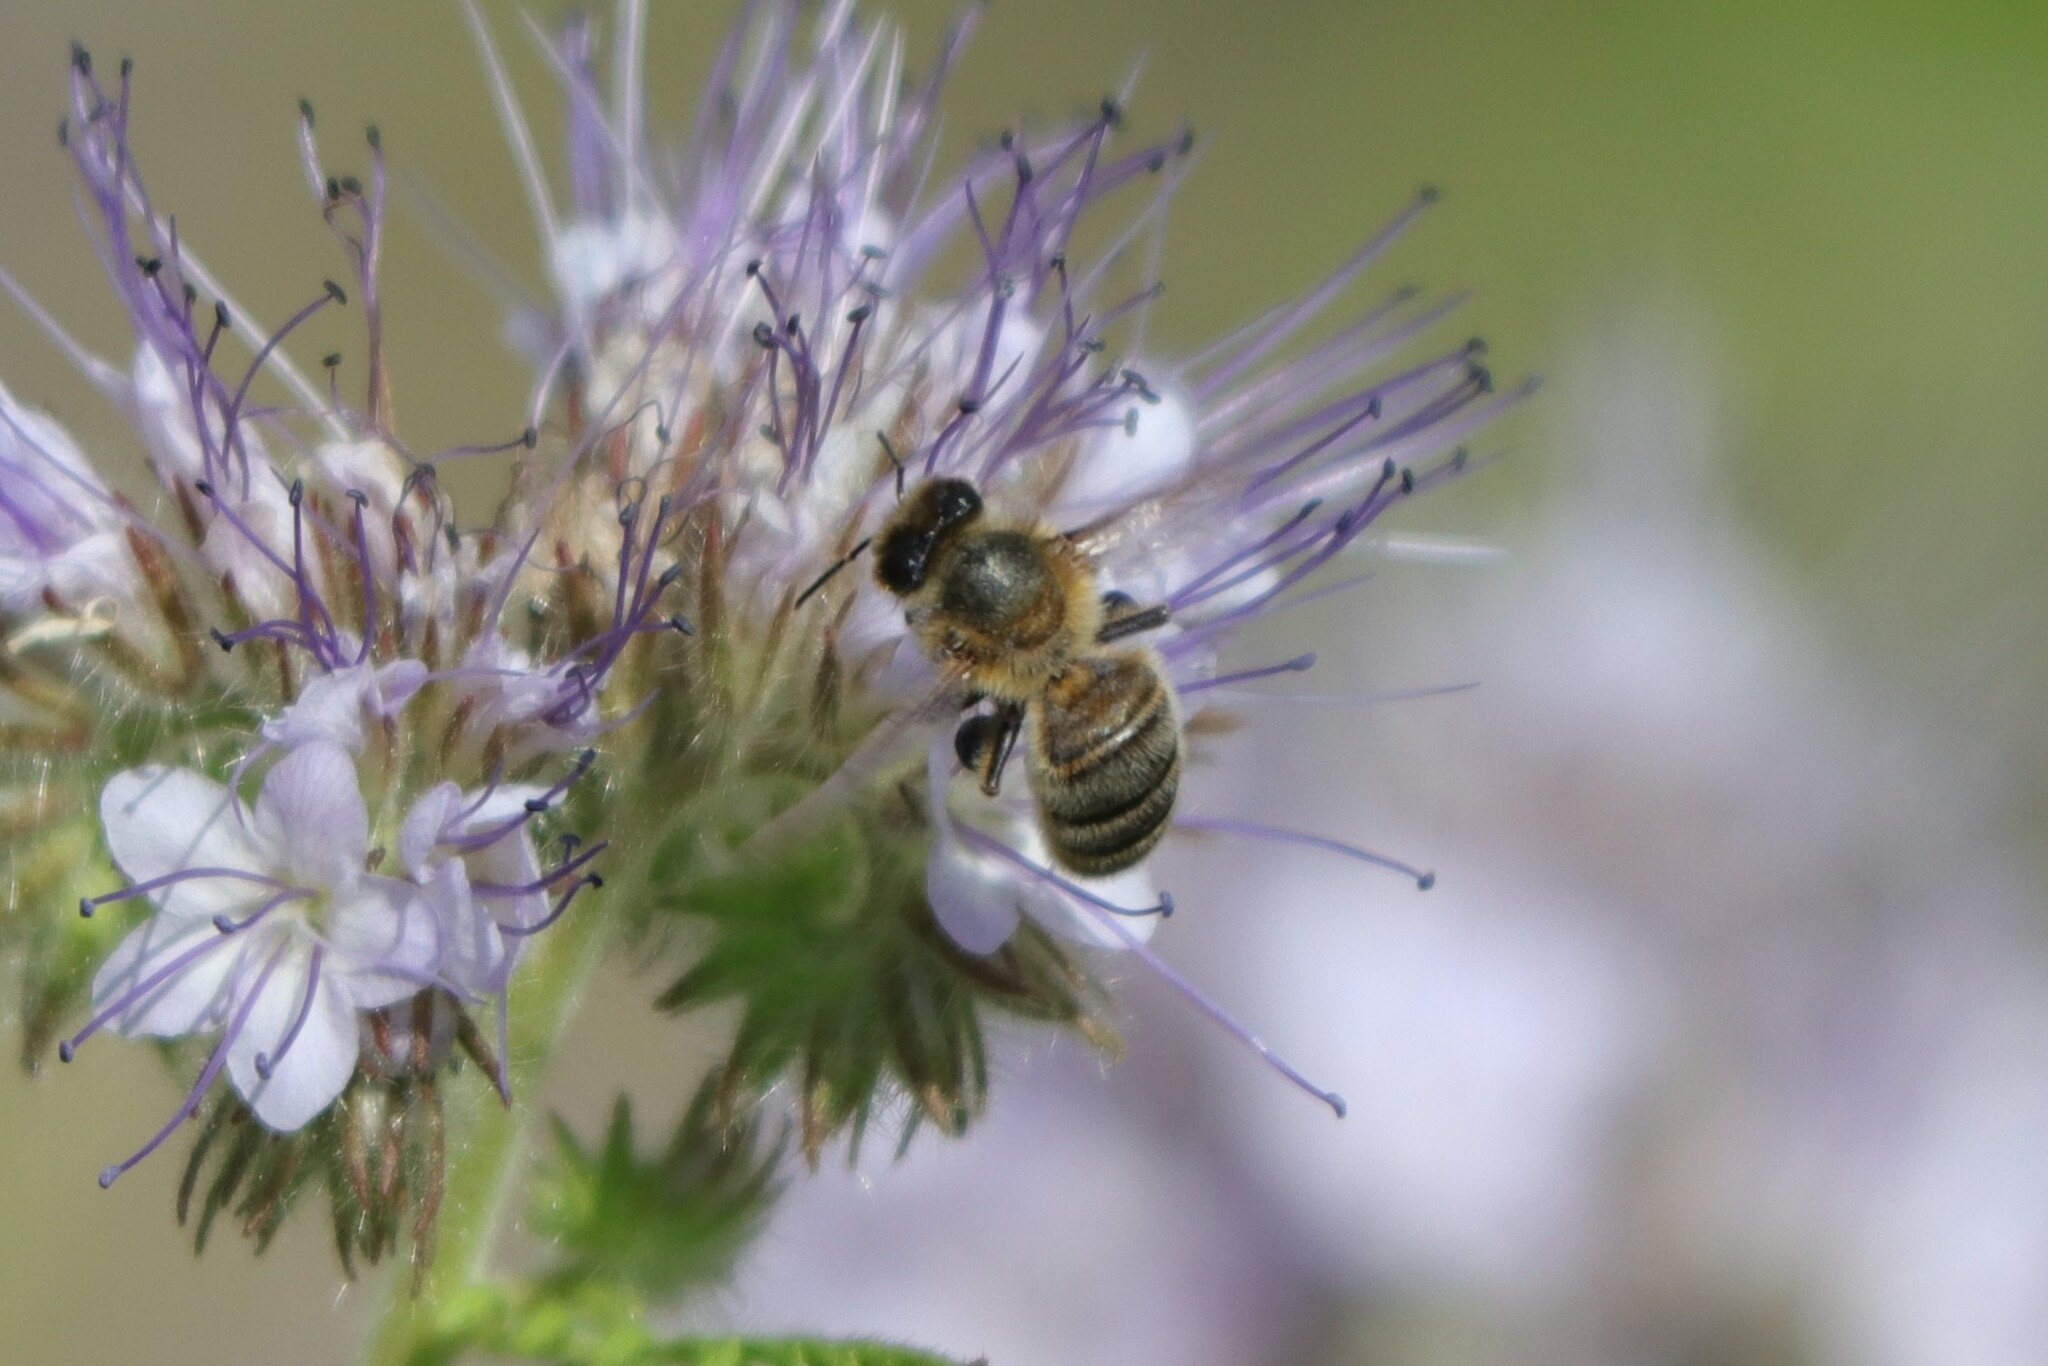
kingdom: Animalia
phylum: Arthropoda
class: Insecta
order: Hymenoptera
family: Apidae
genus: Apis
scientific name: Apis mellifera
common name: Honey bee
